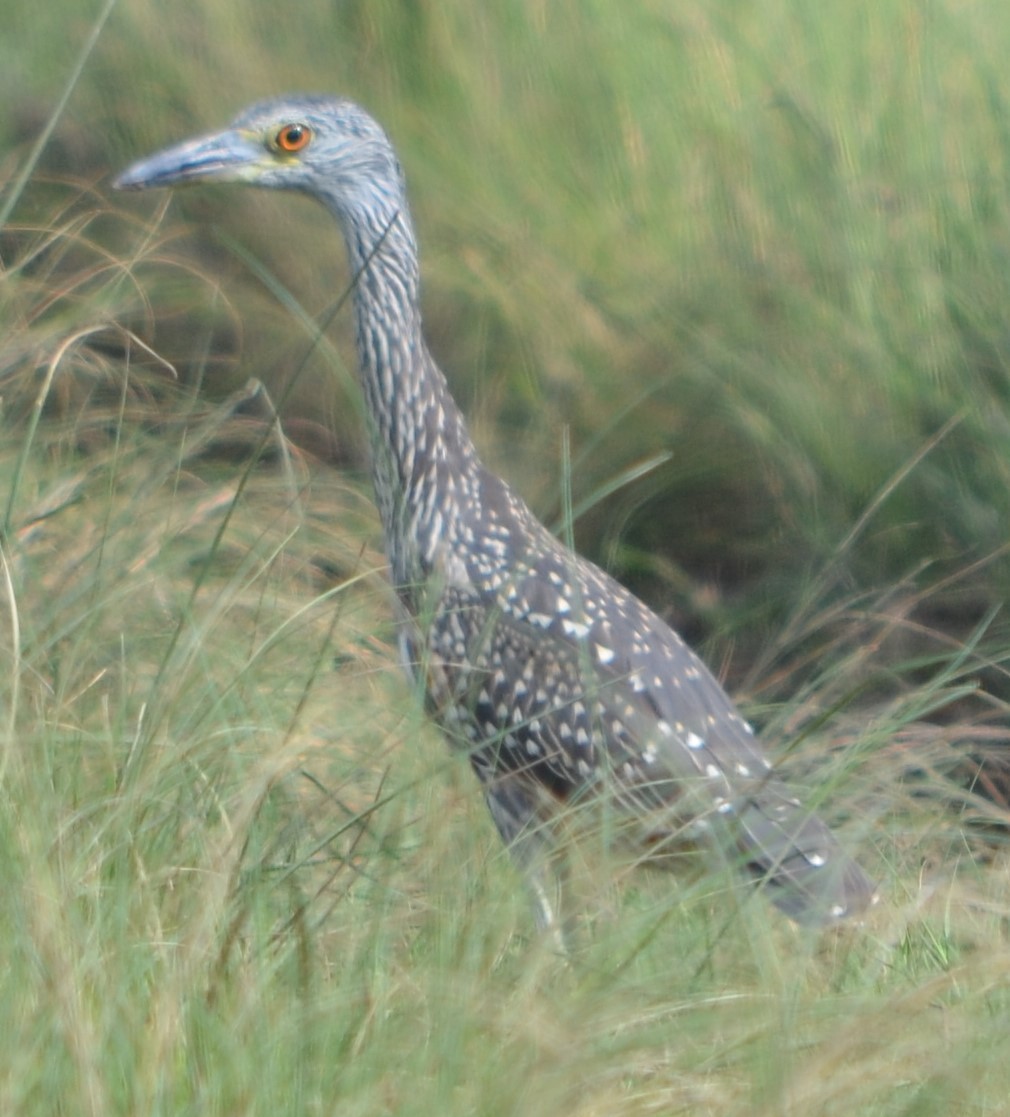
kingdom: Animalia
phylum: Chordata
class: Aves
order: Pelecaniformes
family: Ardeidae
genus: Nyctanassa
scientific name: Nyctanassa violacea
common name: Yellow-crowned night heron
